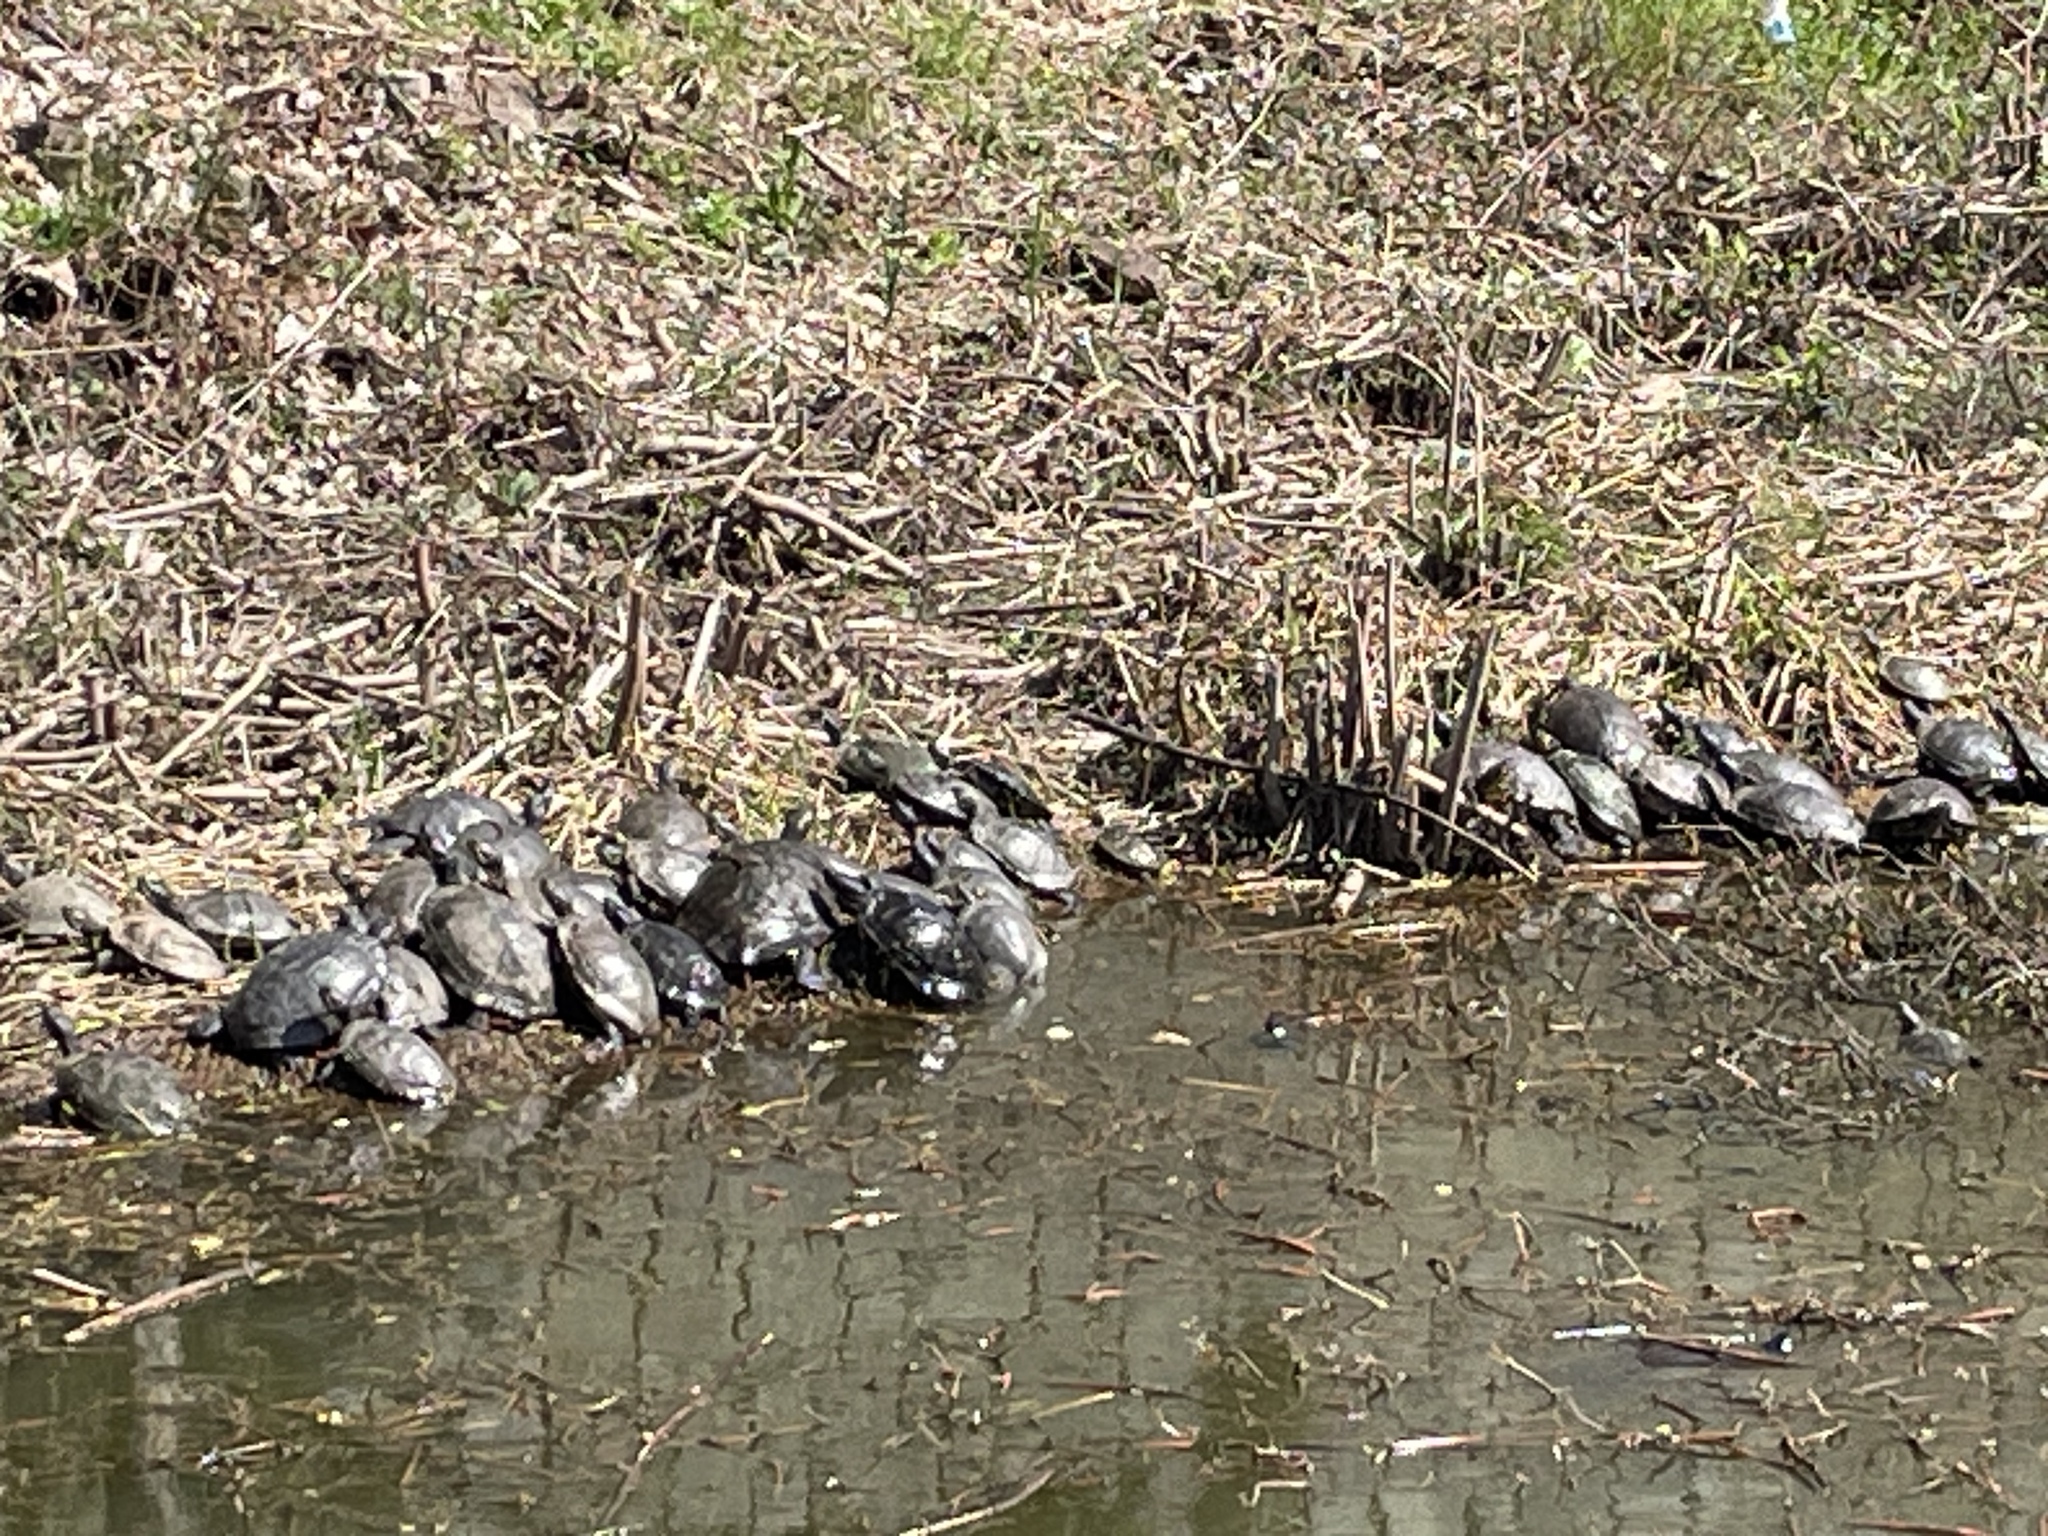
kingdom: Animalia
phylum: Chordata
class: Testudines
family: Emydidae
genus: Trachemys
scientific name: Trachemys scripta
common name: Slider
